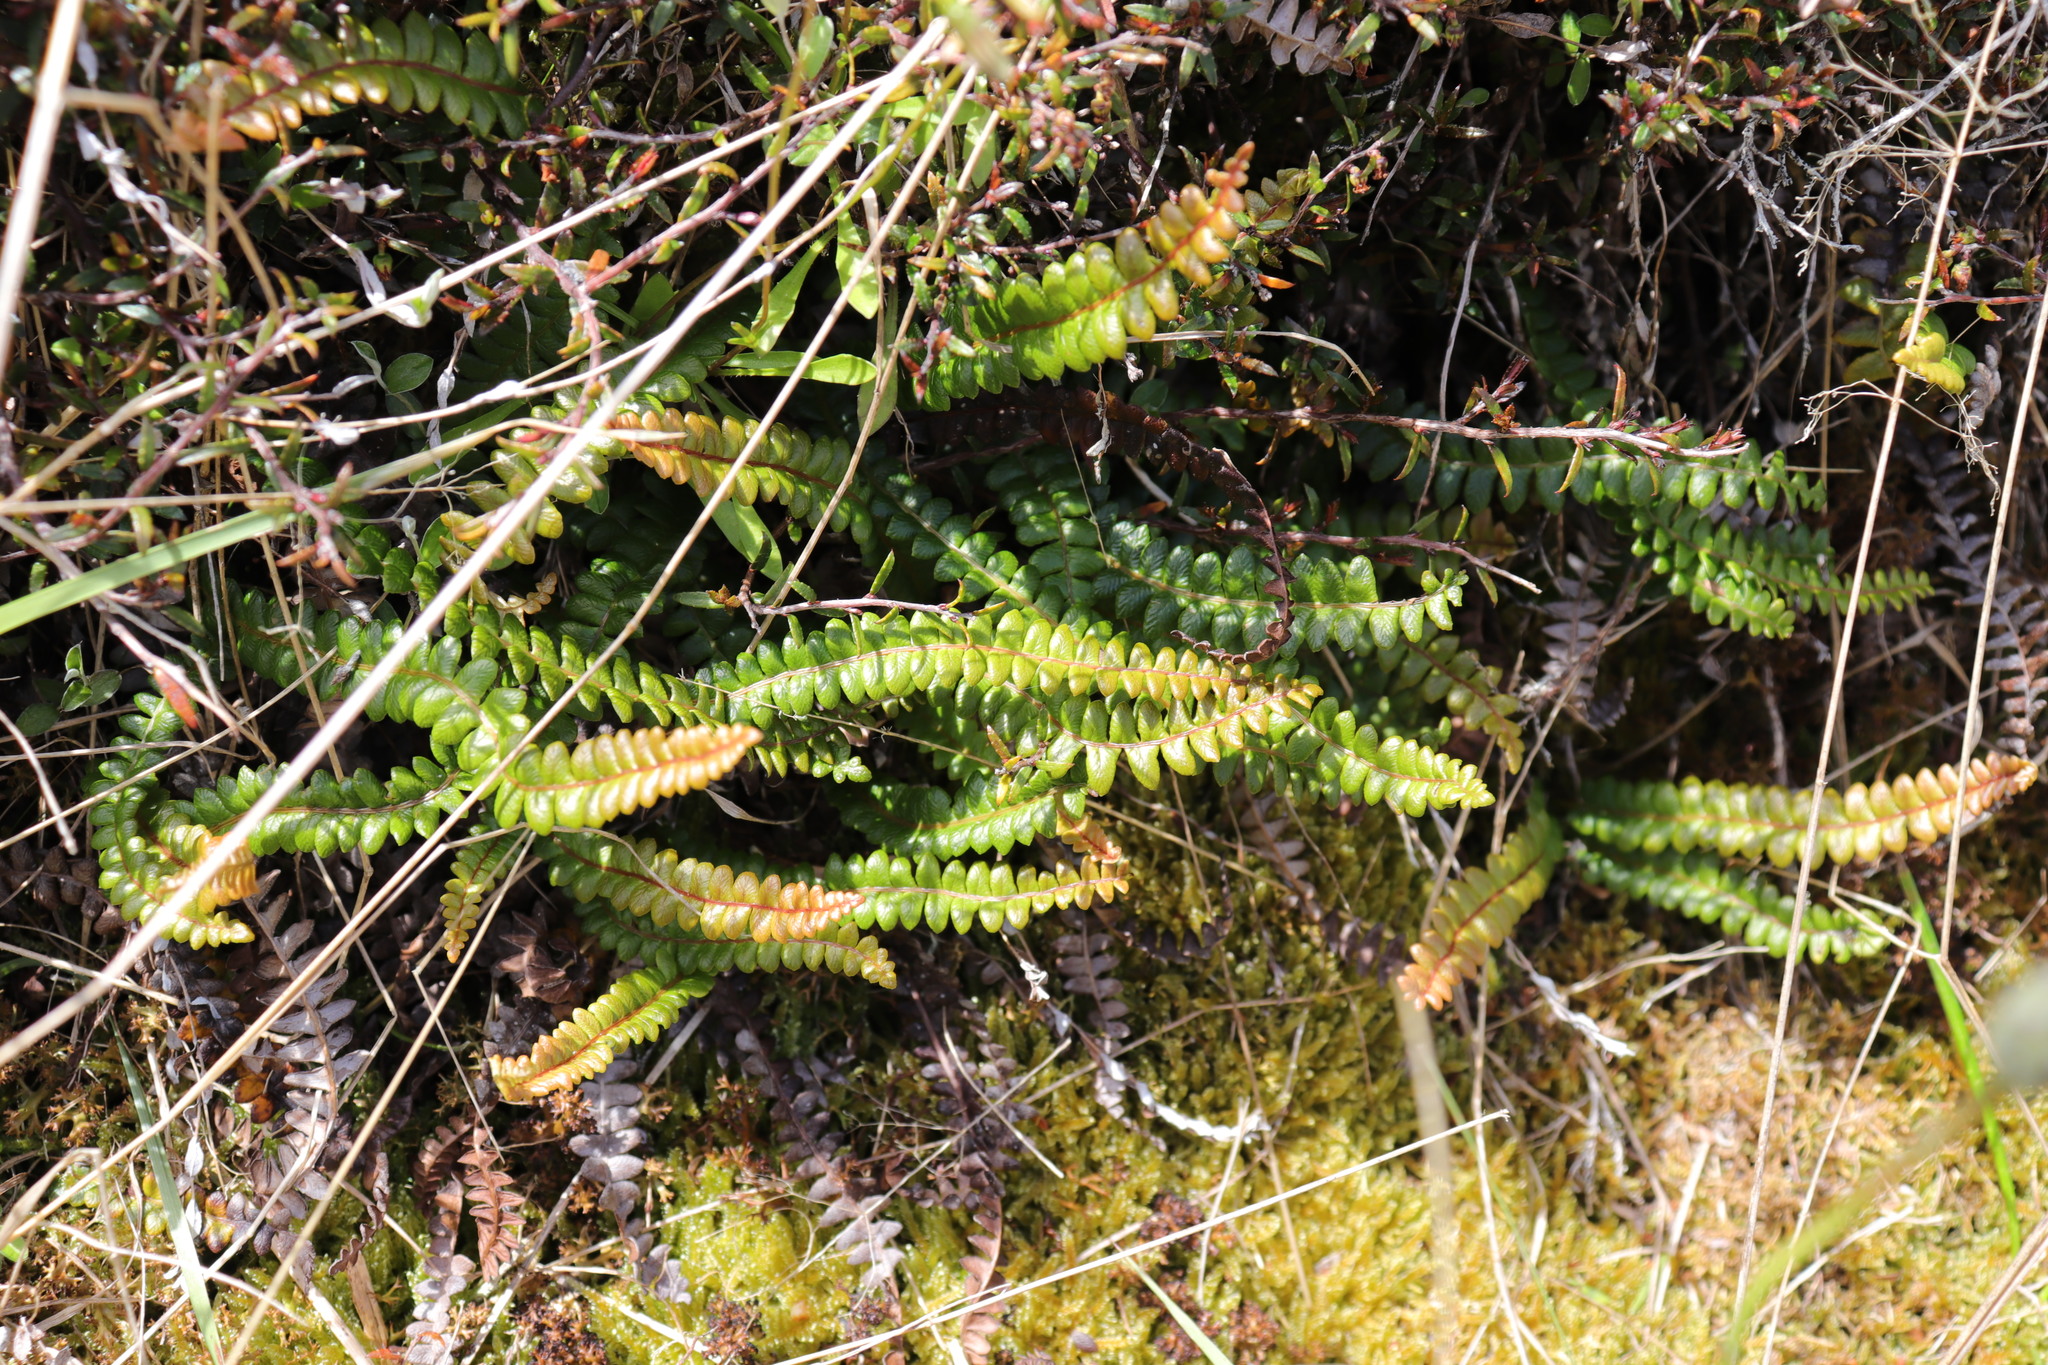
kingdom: Plantae
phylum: Tracheophyta
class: Polypodiopsida
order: Polypodiales
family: Blechnaceae
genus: Austroblechnum
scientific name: Austroblechnum penna-marina
